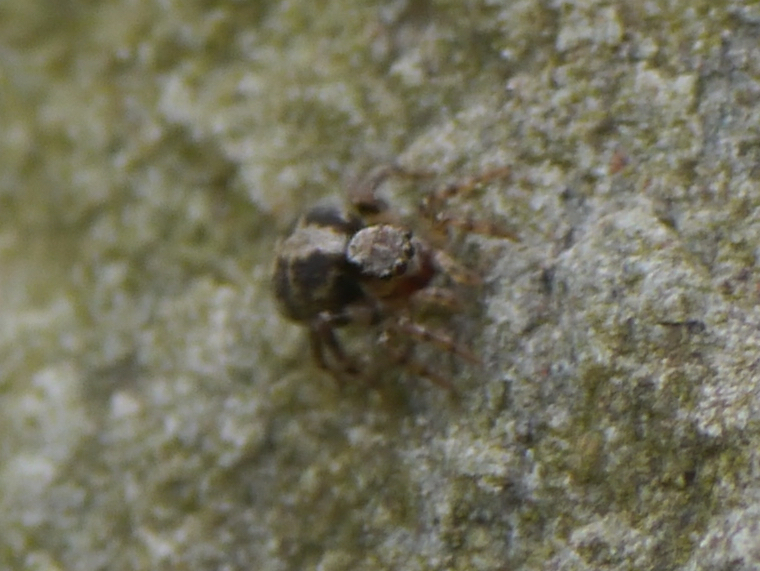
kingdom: Animalia
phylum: Arthropoda
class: Arachnida
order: Araneae
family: Salticidae
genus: Naphrys
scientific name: Naphrys pulex
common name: Flea jumping spider
